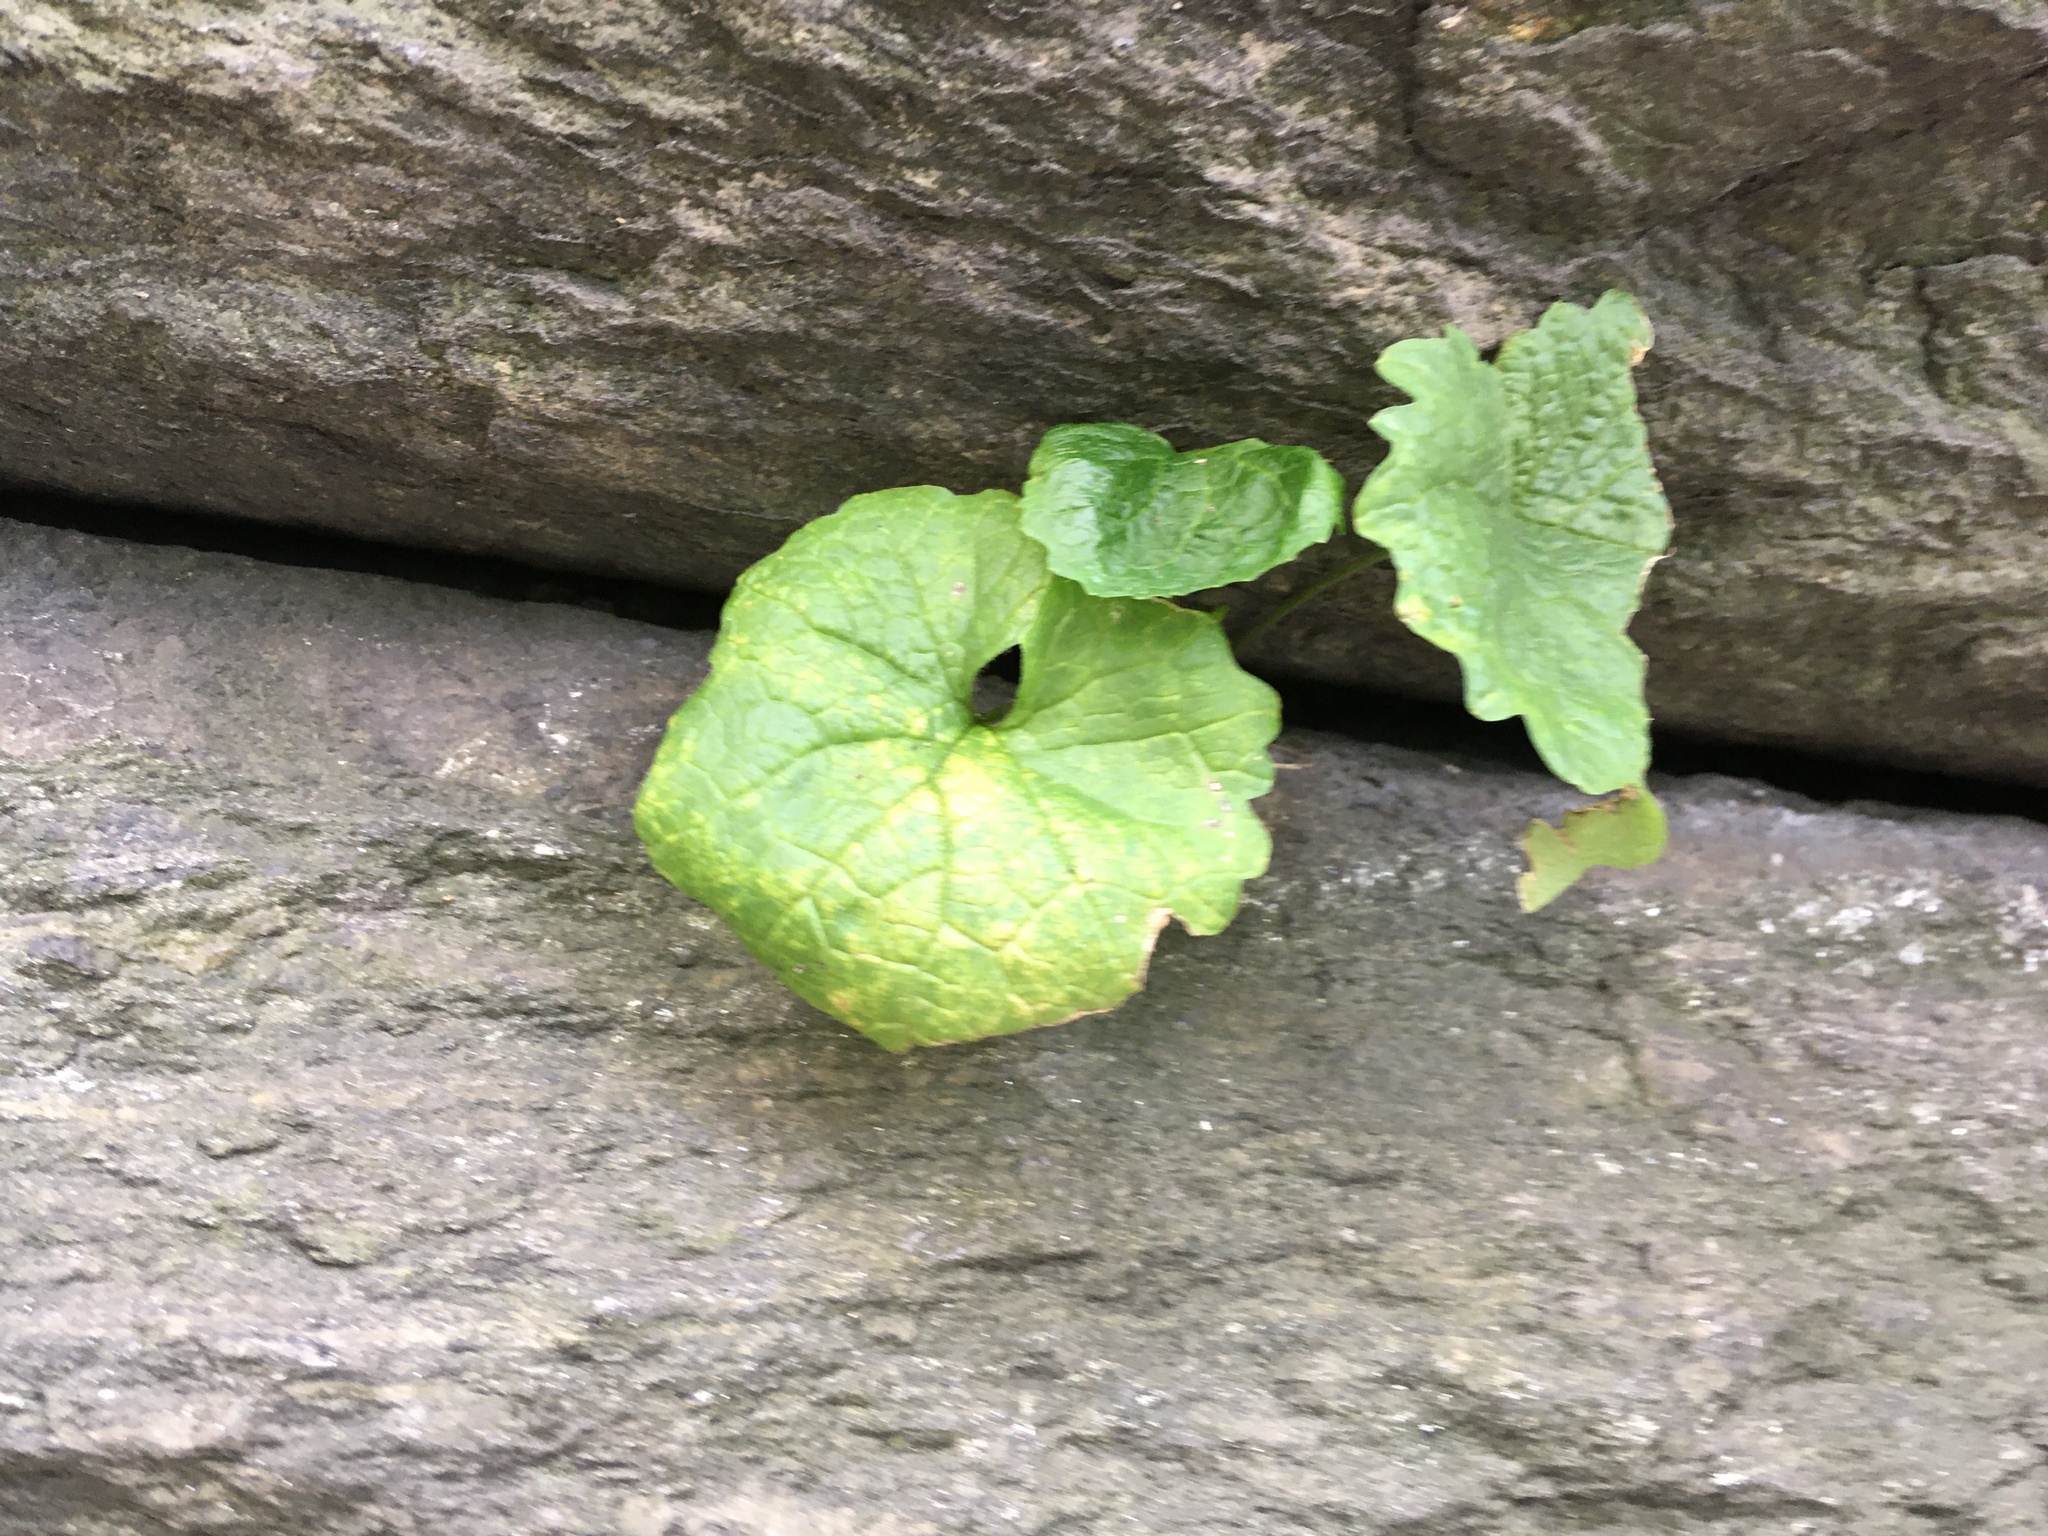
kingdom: Plantae
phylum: Tracheophyta
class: Magnoliopsida
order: Brassicales
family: Brassicaceae
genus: Alliaria
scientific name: Alliaria petiolata
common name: Garlic mustard
